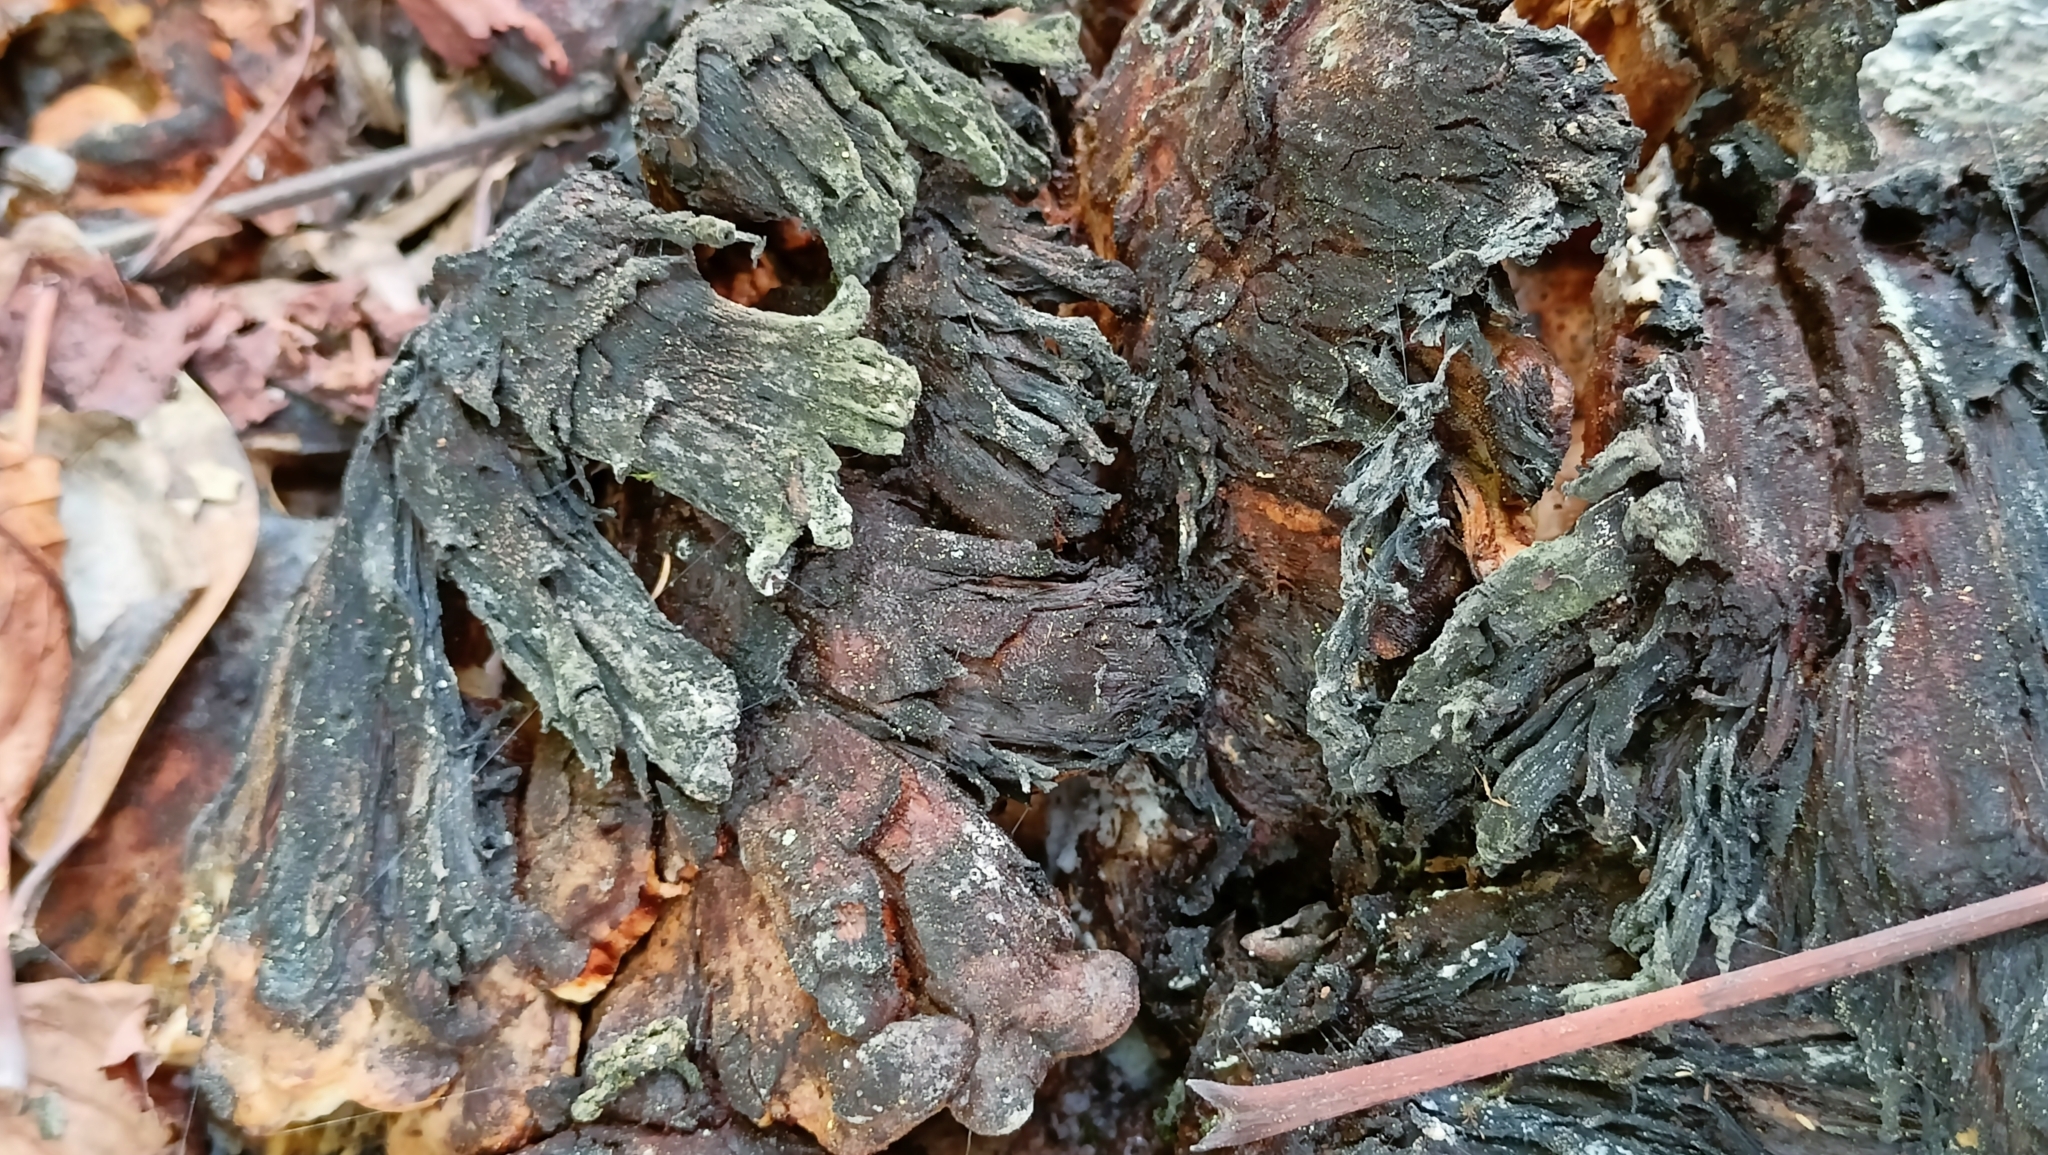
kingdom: Fungi
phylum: Basidiomycota
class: Agaricomycetes
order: Polyporales
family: Meripilaceae
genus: Meripilus
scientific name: Meripilus giganteus
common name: Giant polypore
